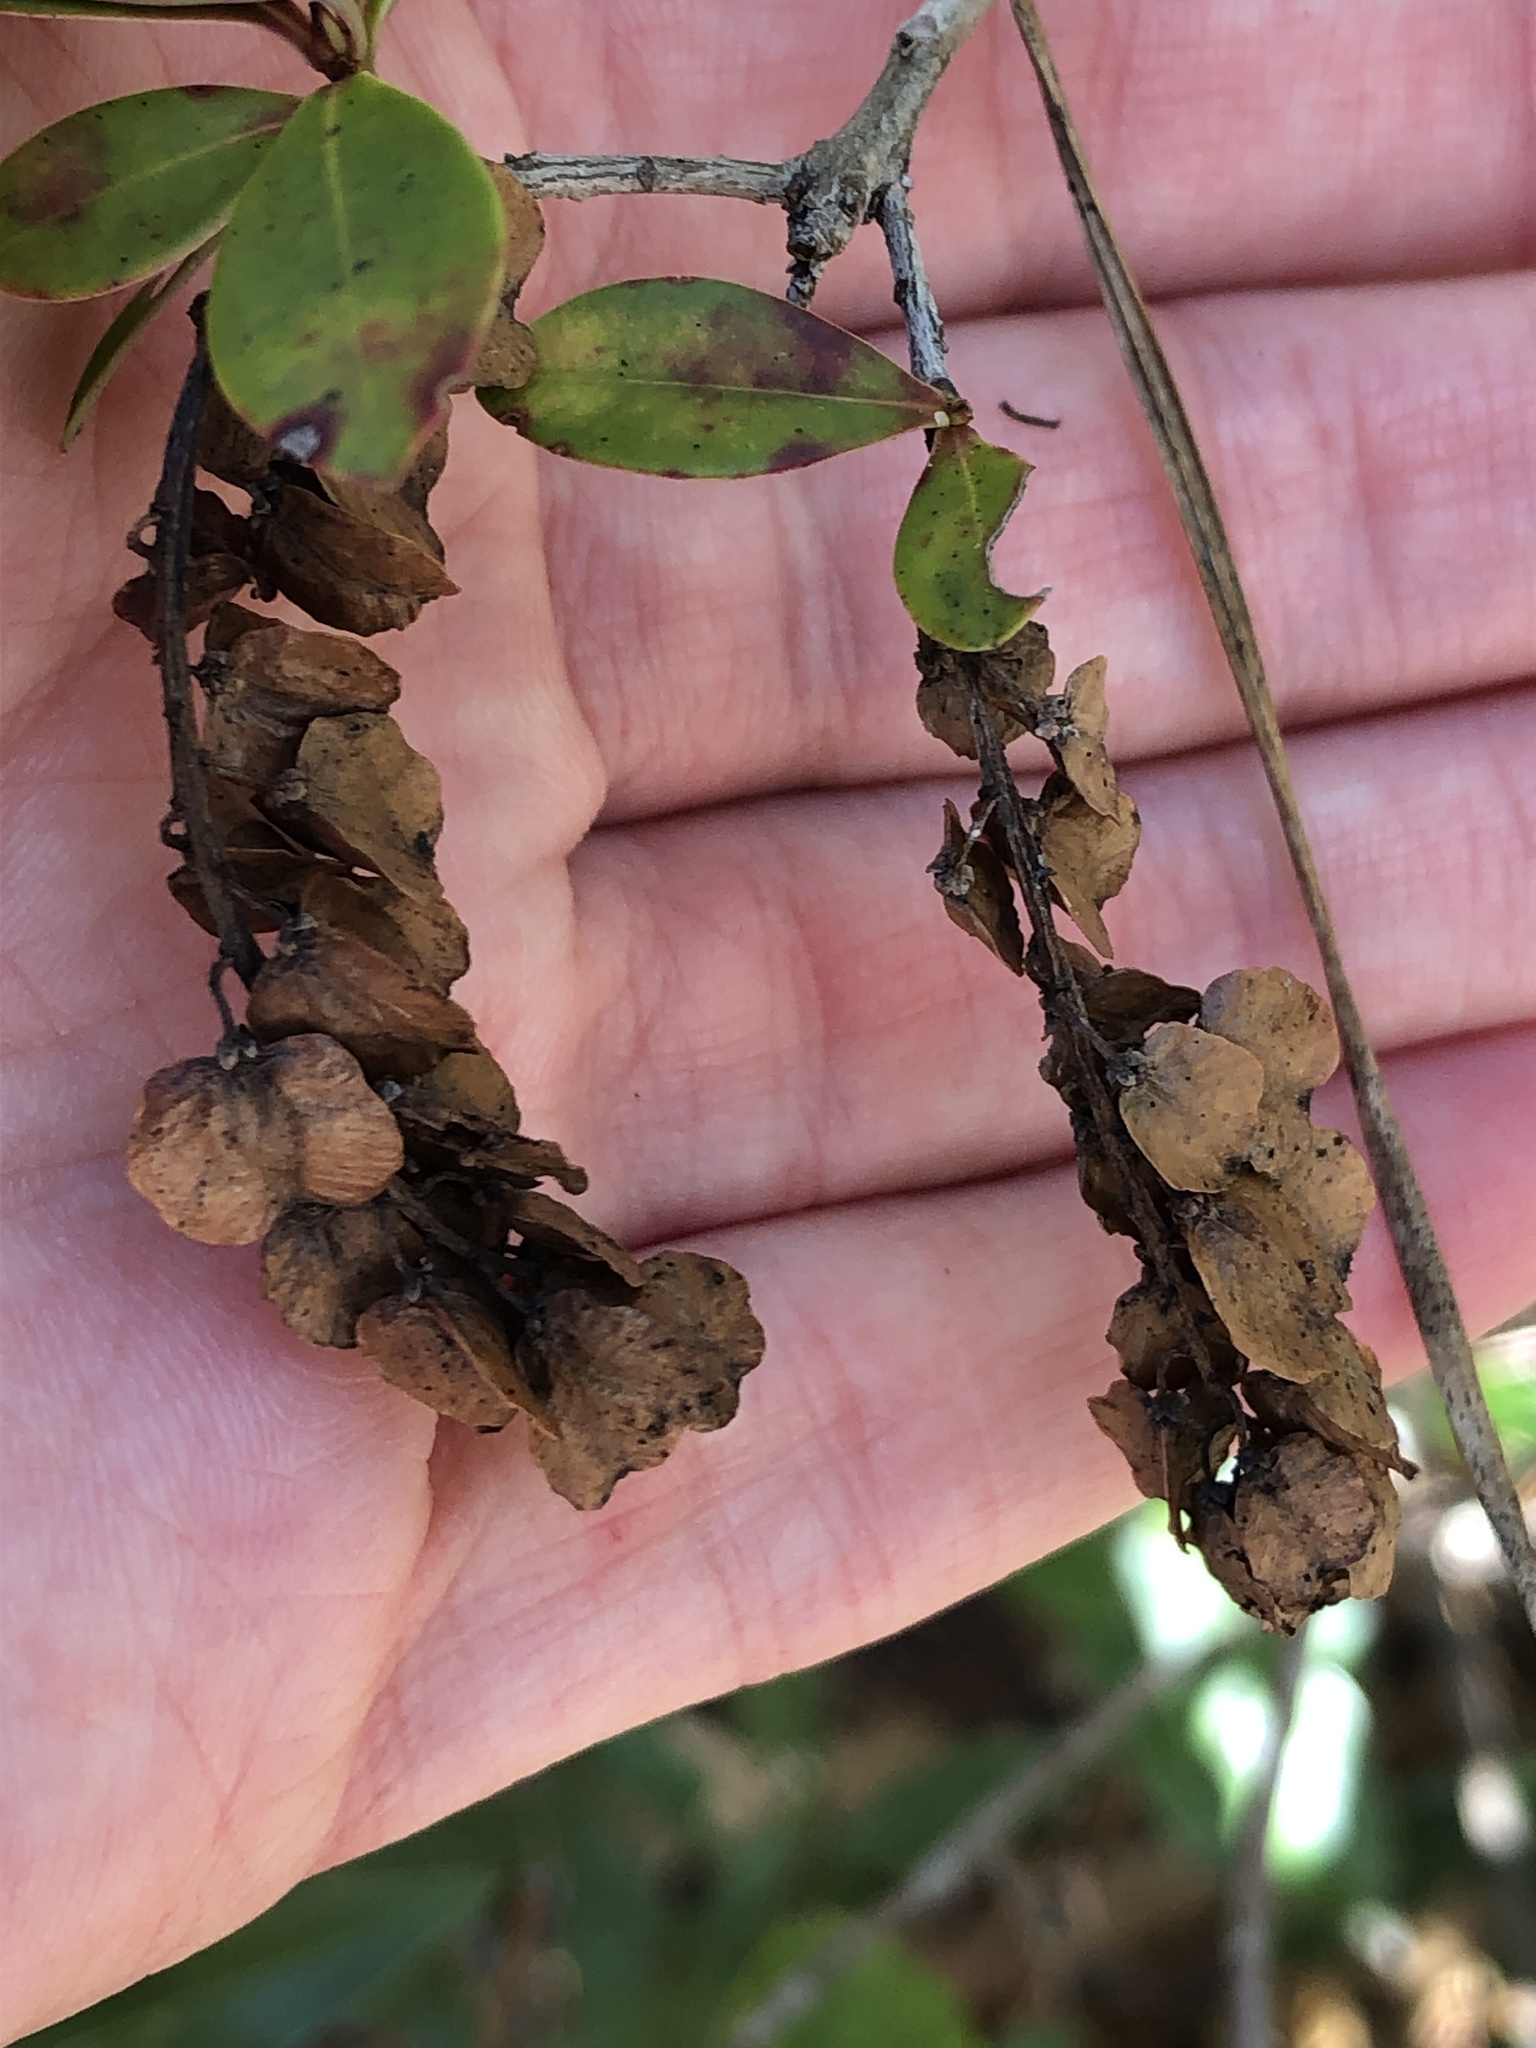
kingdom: Plantae
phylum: Tracheophyta
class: Magnoliopsida
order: Ericales
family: Cyrillaceae
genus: Cliftonia
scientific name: Cliftonia monophylla
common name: Titi
